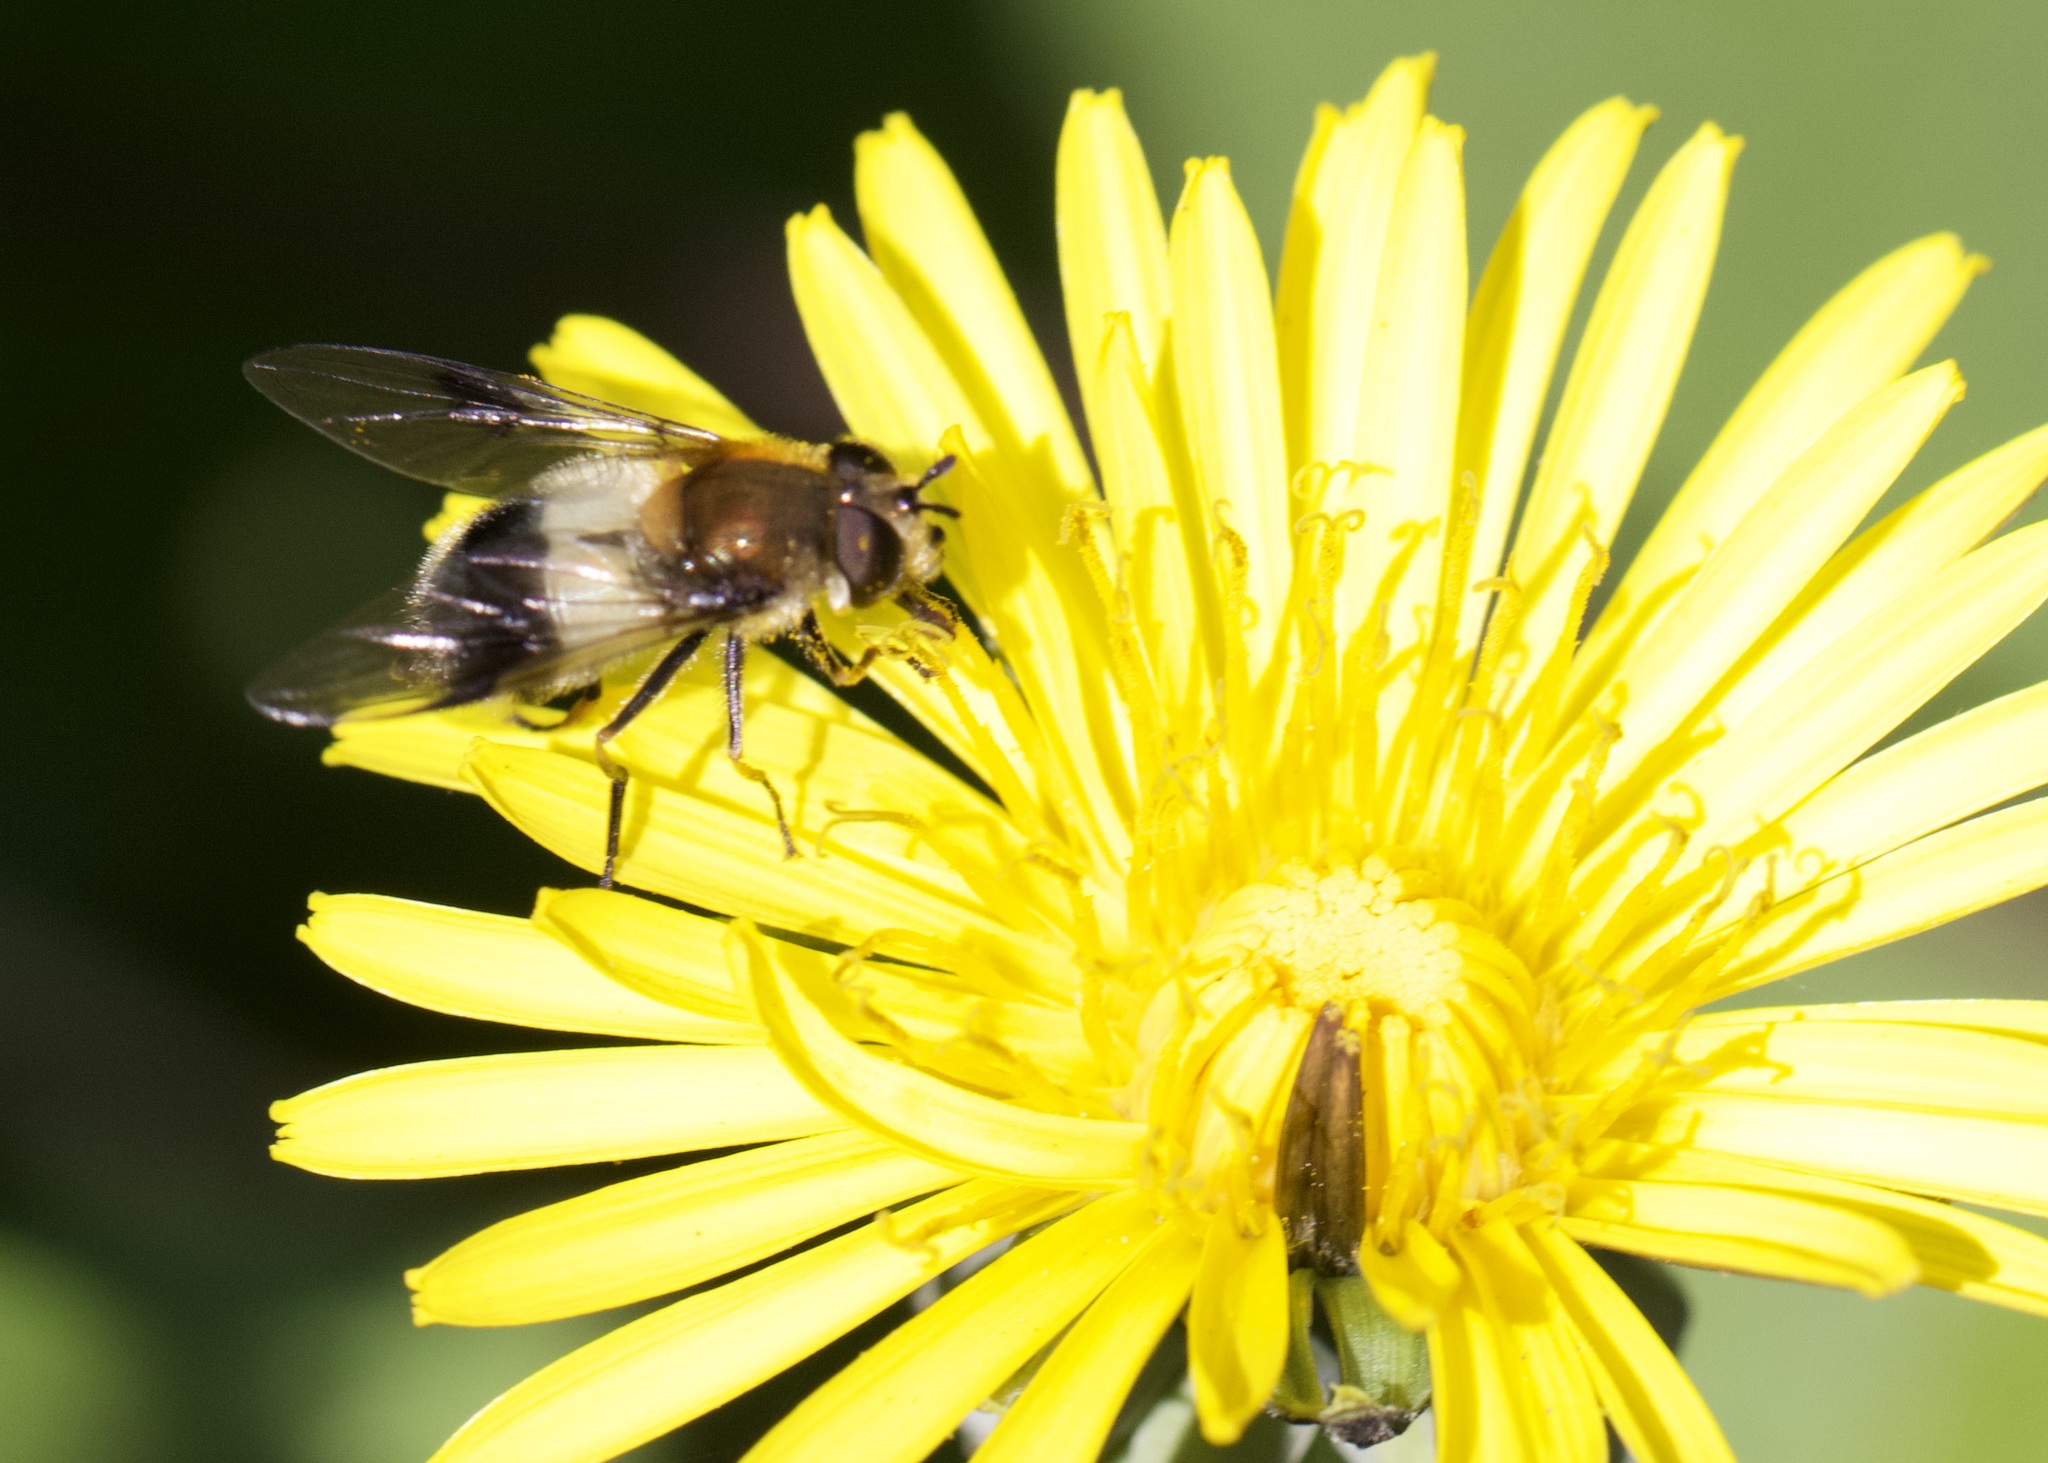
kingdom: Animalia
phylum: Arthropoda
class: Insecta
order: Diptera
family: Syrphidae
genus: Leucozona
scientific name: Leucozona lucorum
